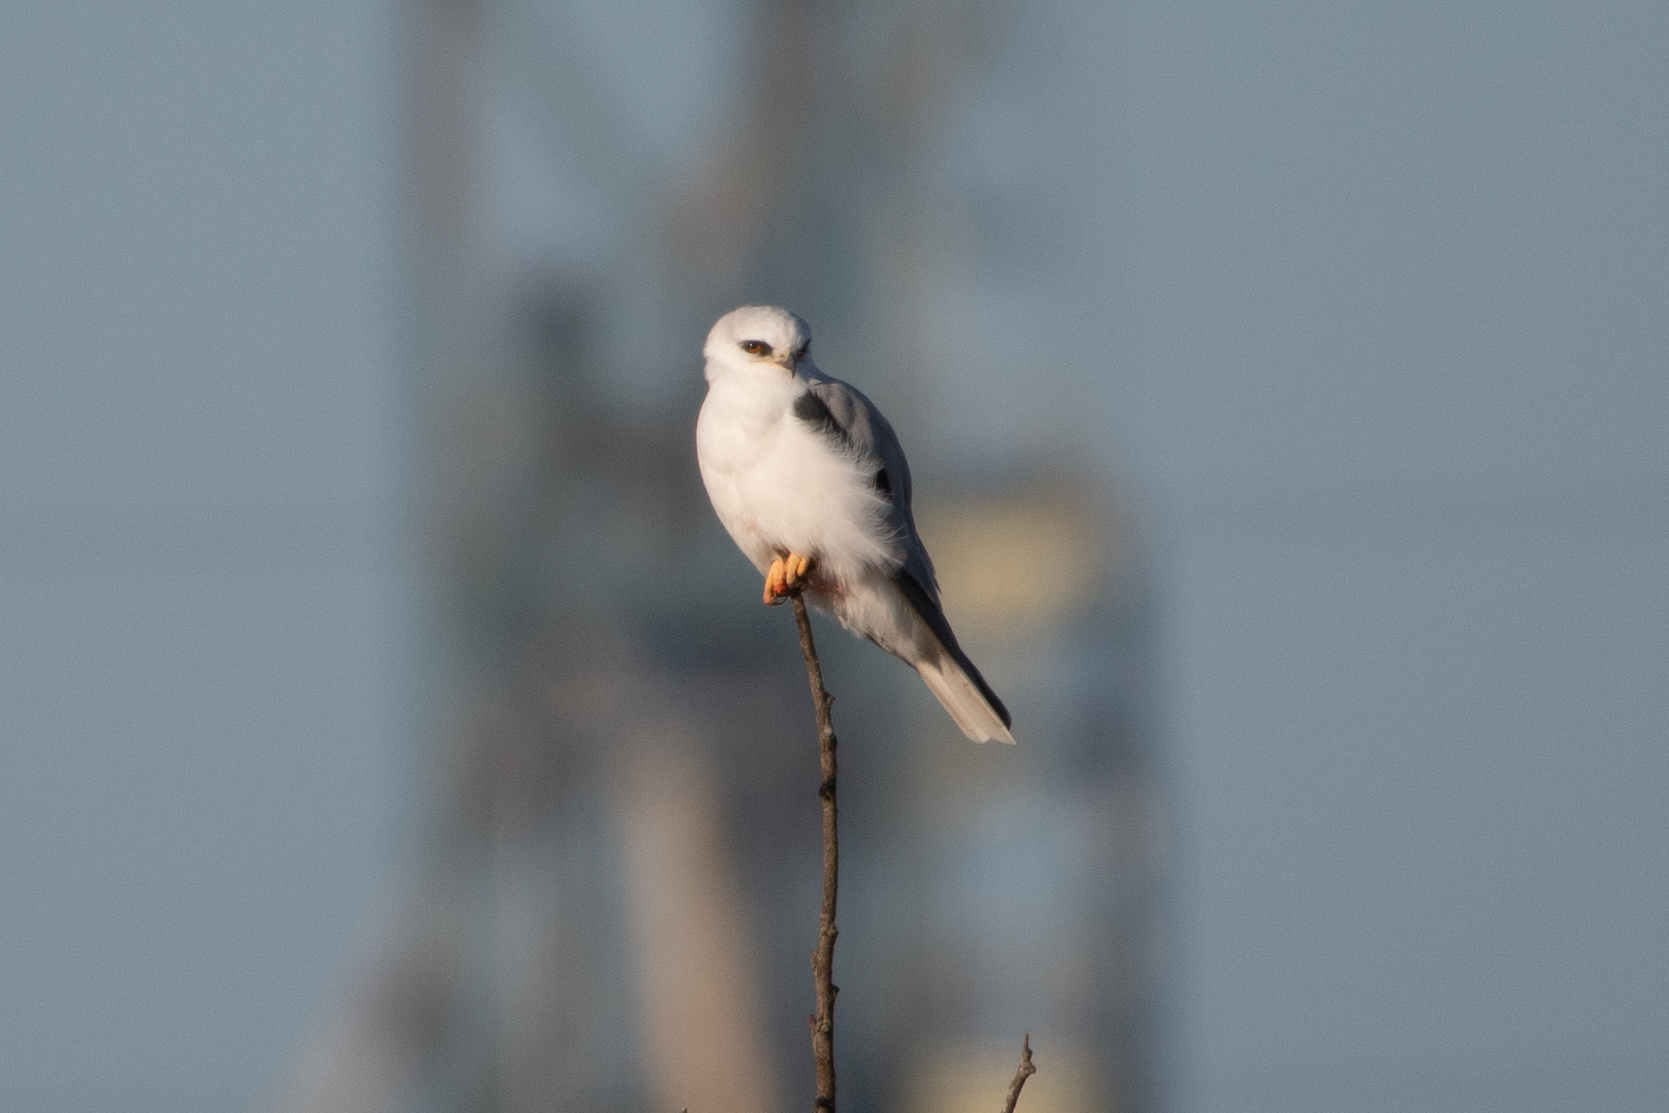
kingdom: Animalia
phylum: Chordata
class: Aves
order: Accipitriformes
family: Accipitridae
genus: Elanus
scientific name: Elanus leucurus
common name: White-tailed kite
